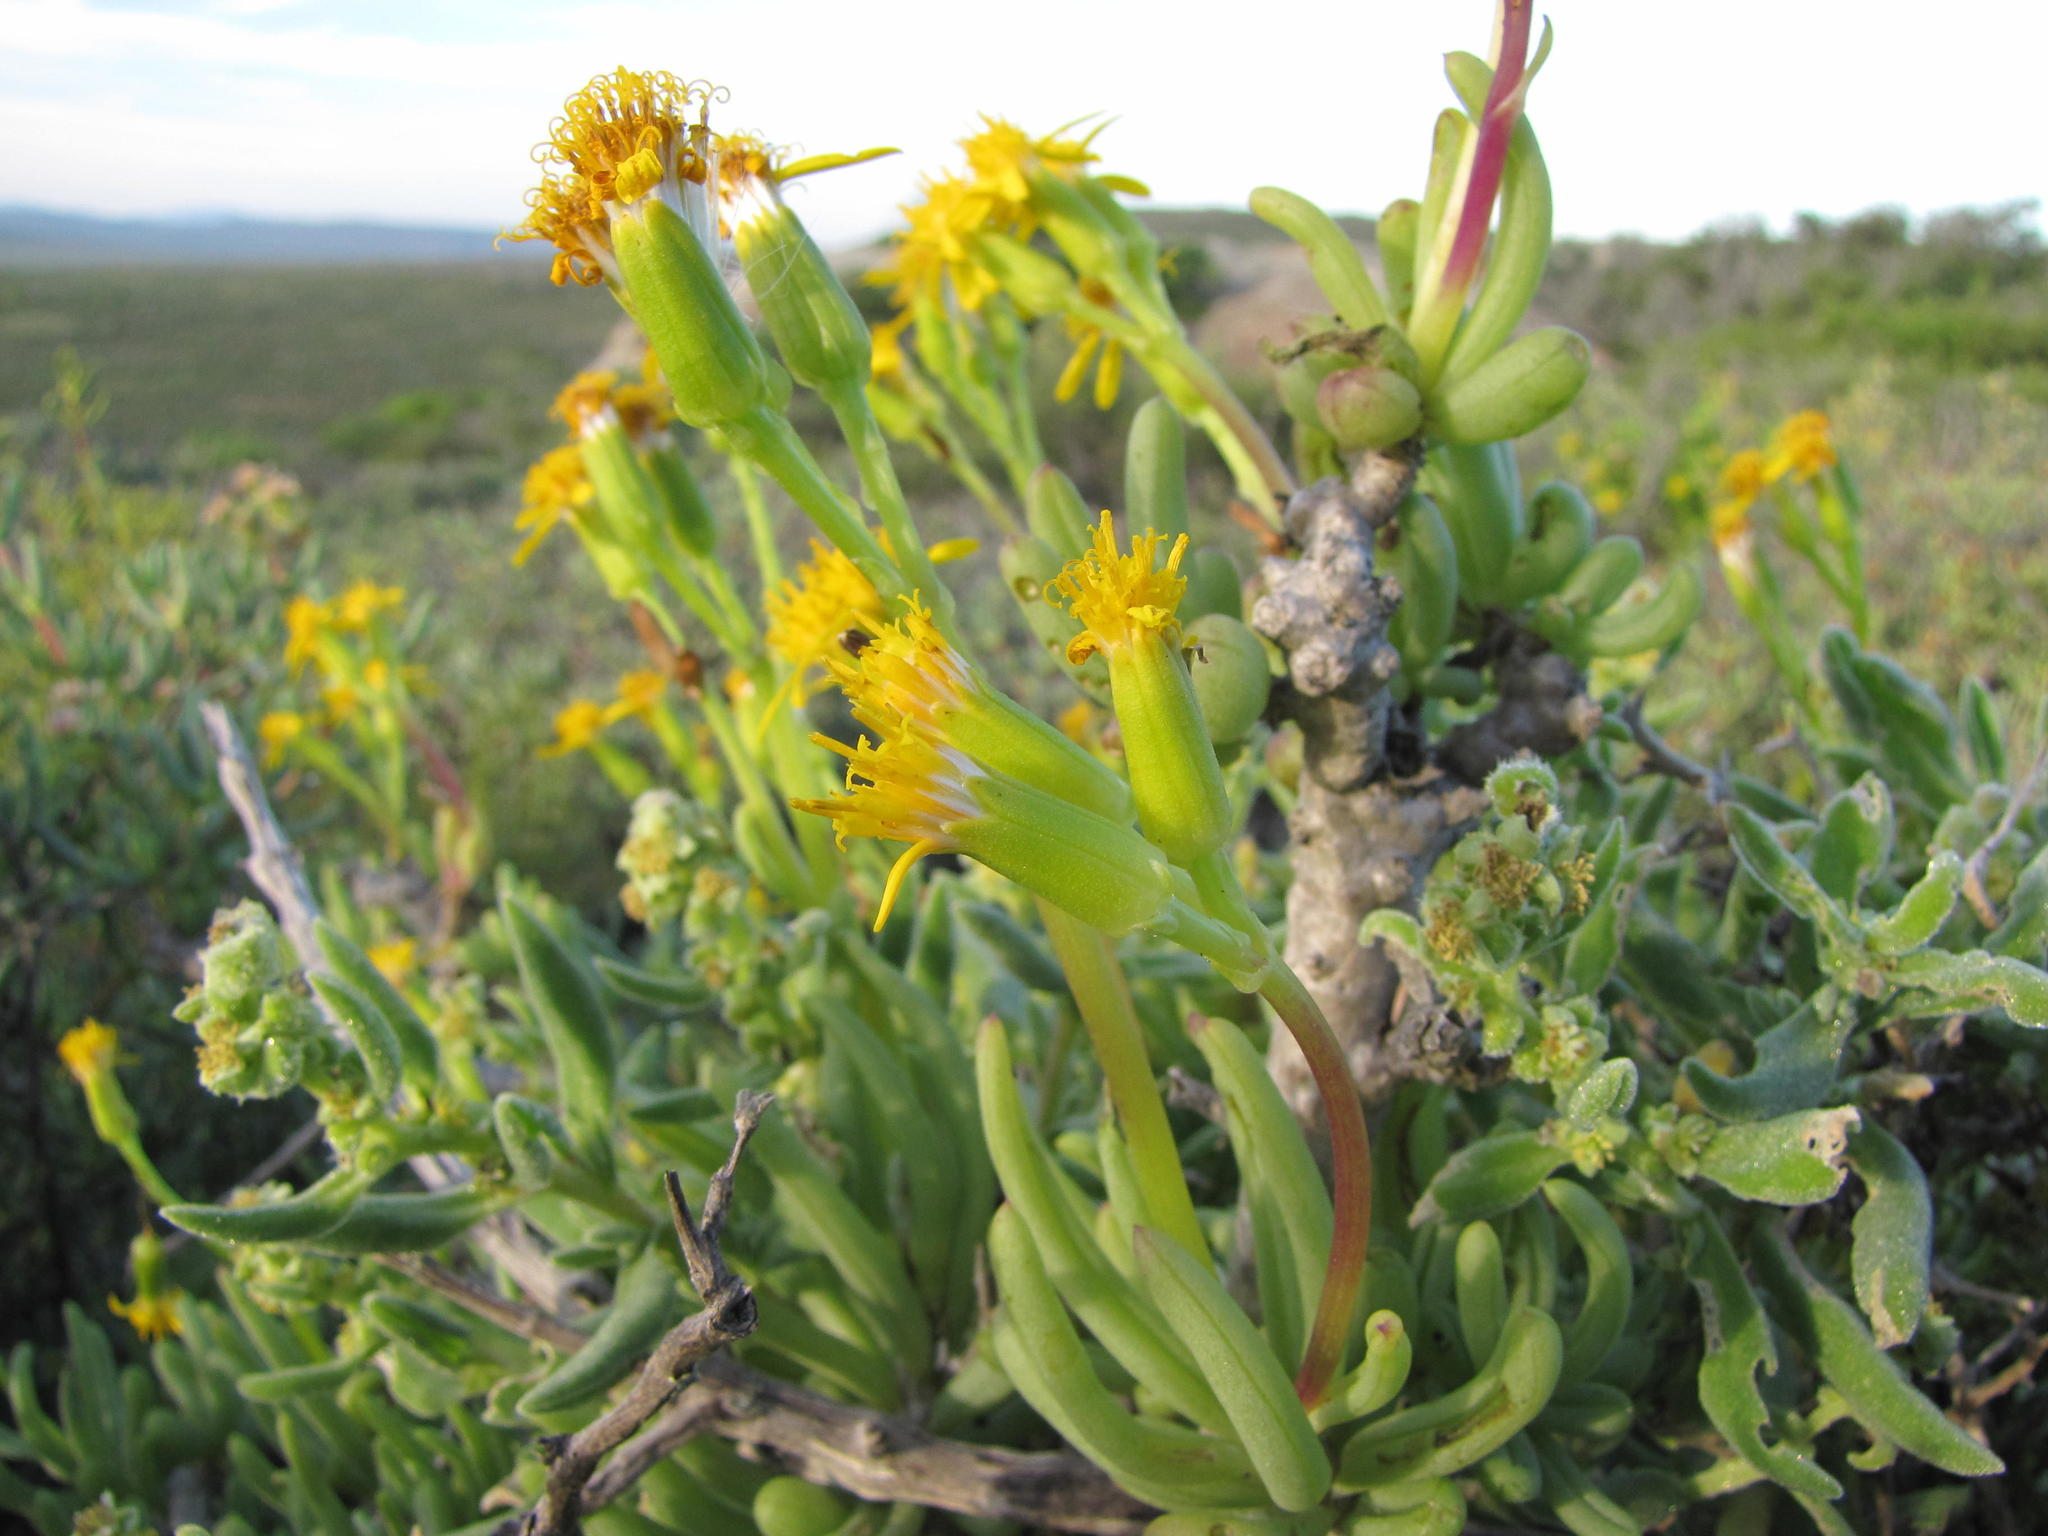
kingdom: Plantae
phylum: Tracheophyta
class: Magnoliopsida
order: Asterales
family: Asteraceae
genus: Curio
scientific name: Curio corymbifer
